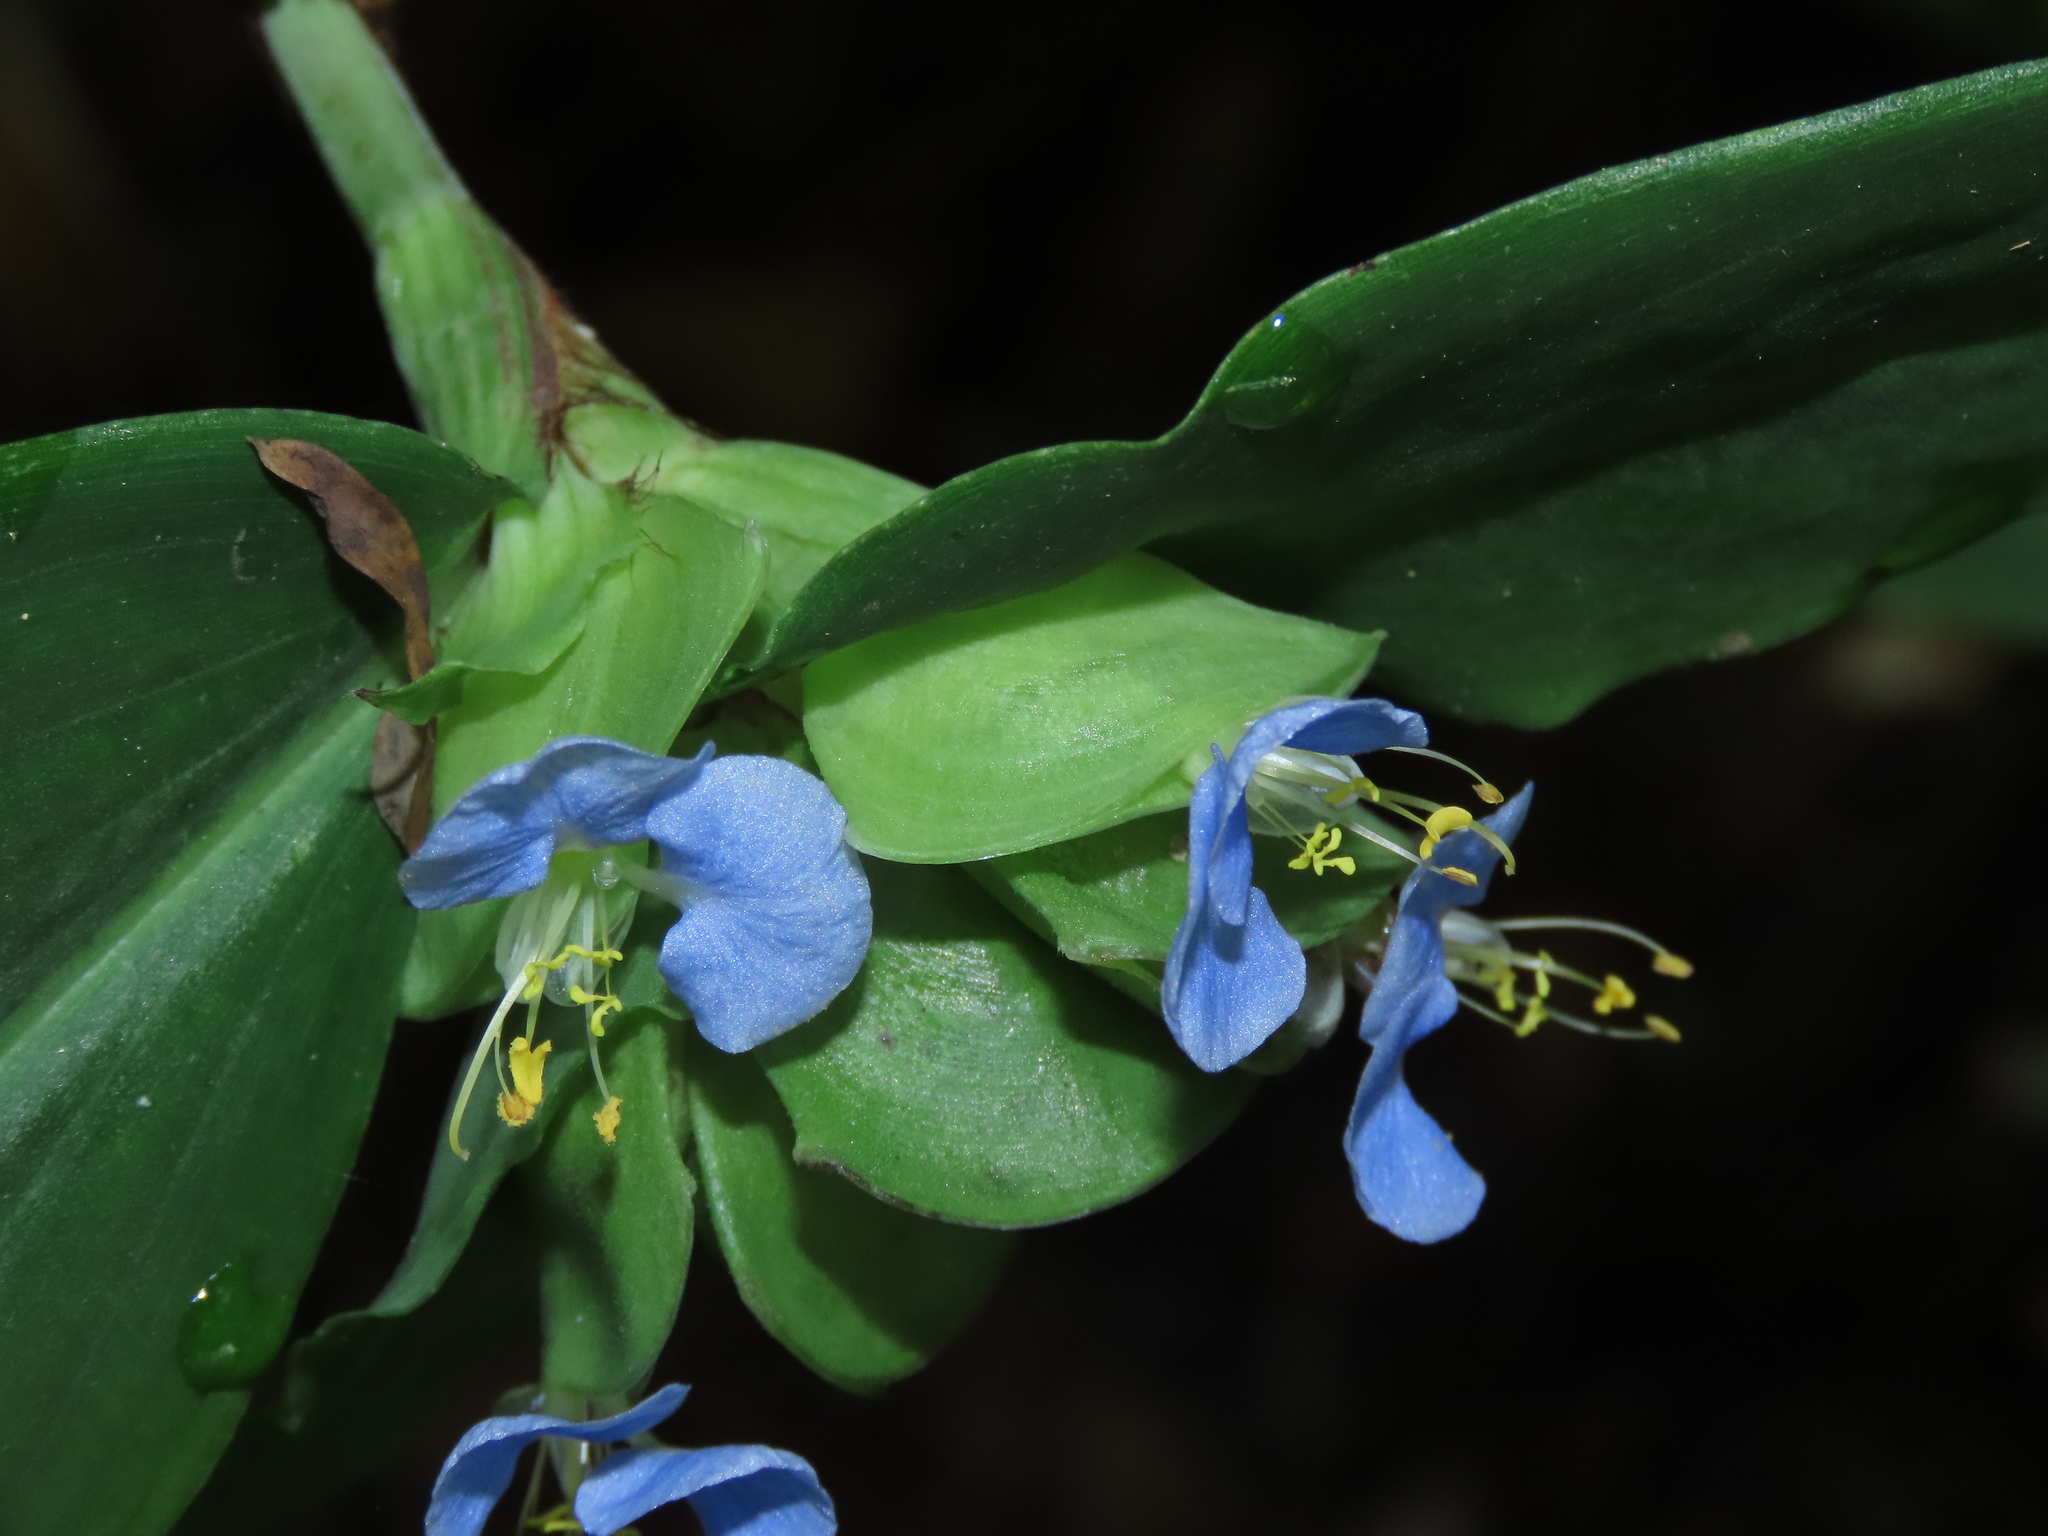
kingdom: Plantae
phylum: Tracheophyta
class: Liliopsida
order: Commelinales
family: Commelinaceae
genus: Commelina
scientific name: Commelina paludosa
